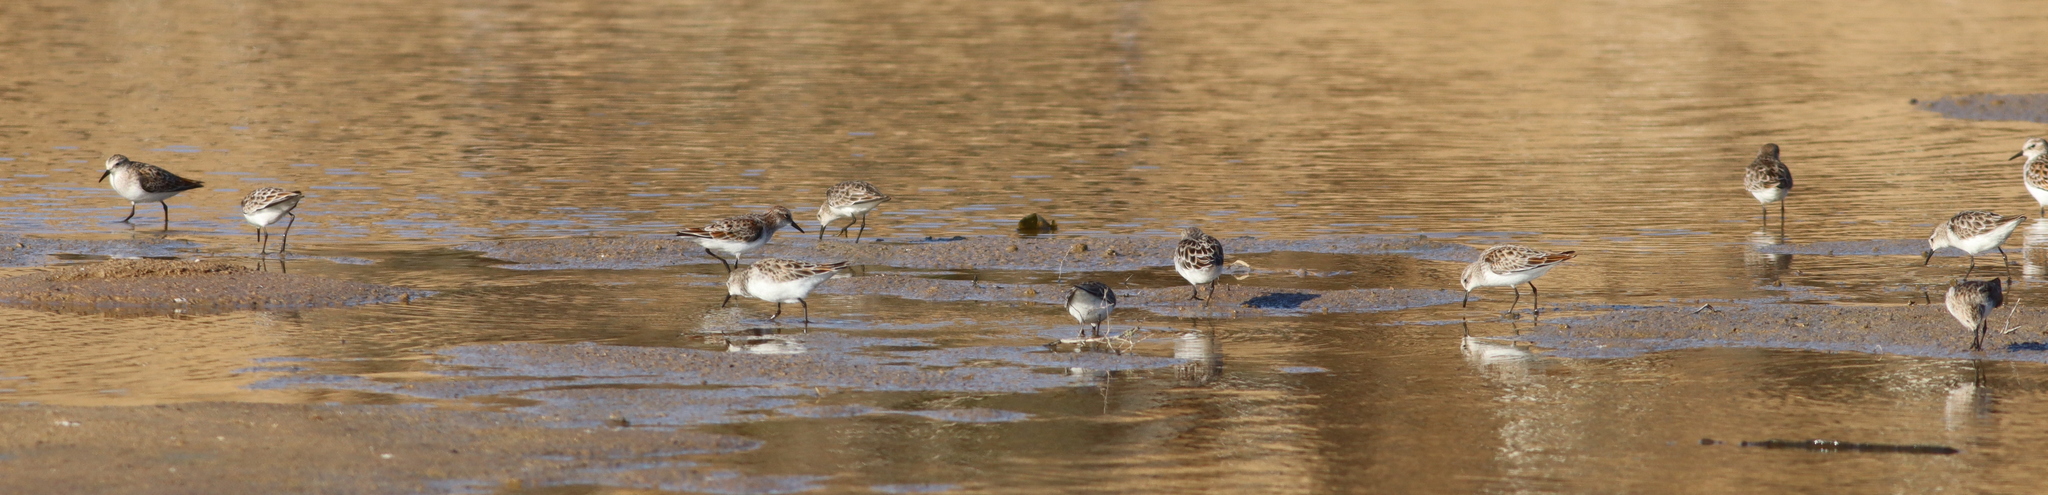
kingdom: Animalia
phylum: Chordata
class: Aves
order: Charadriiformes
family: Scolopacidae
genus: Calidris
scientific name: Calidris minuta
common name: Little stint
